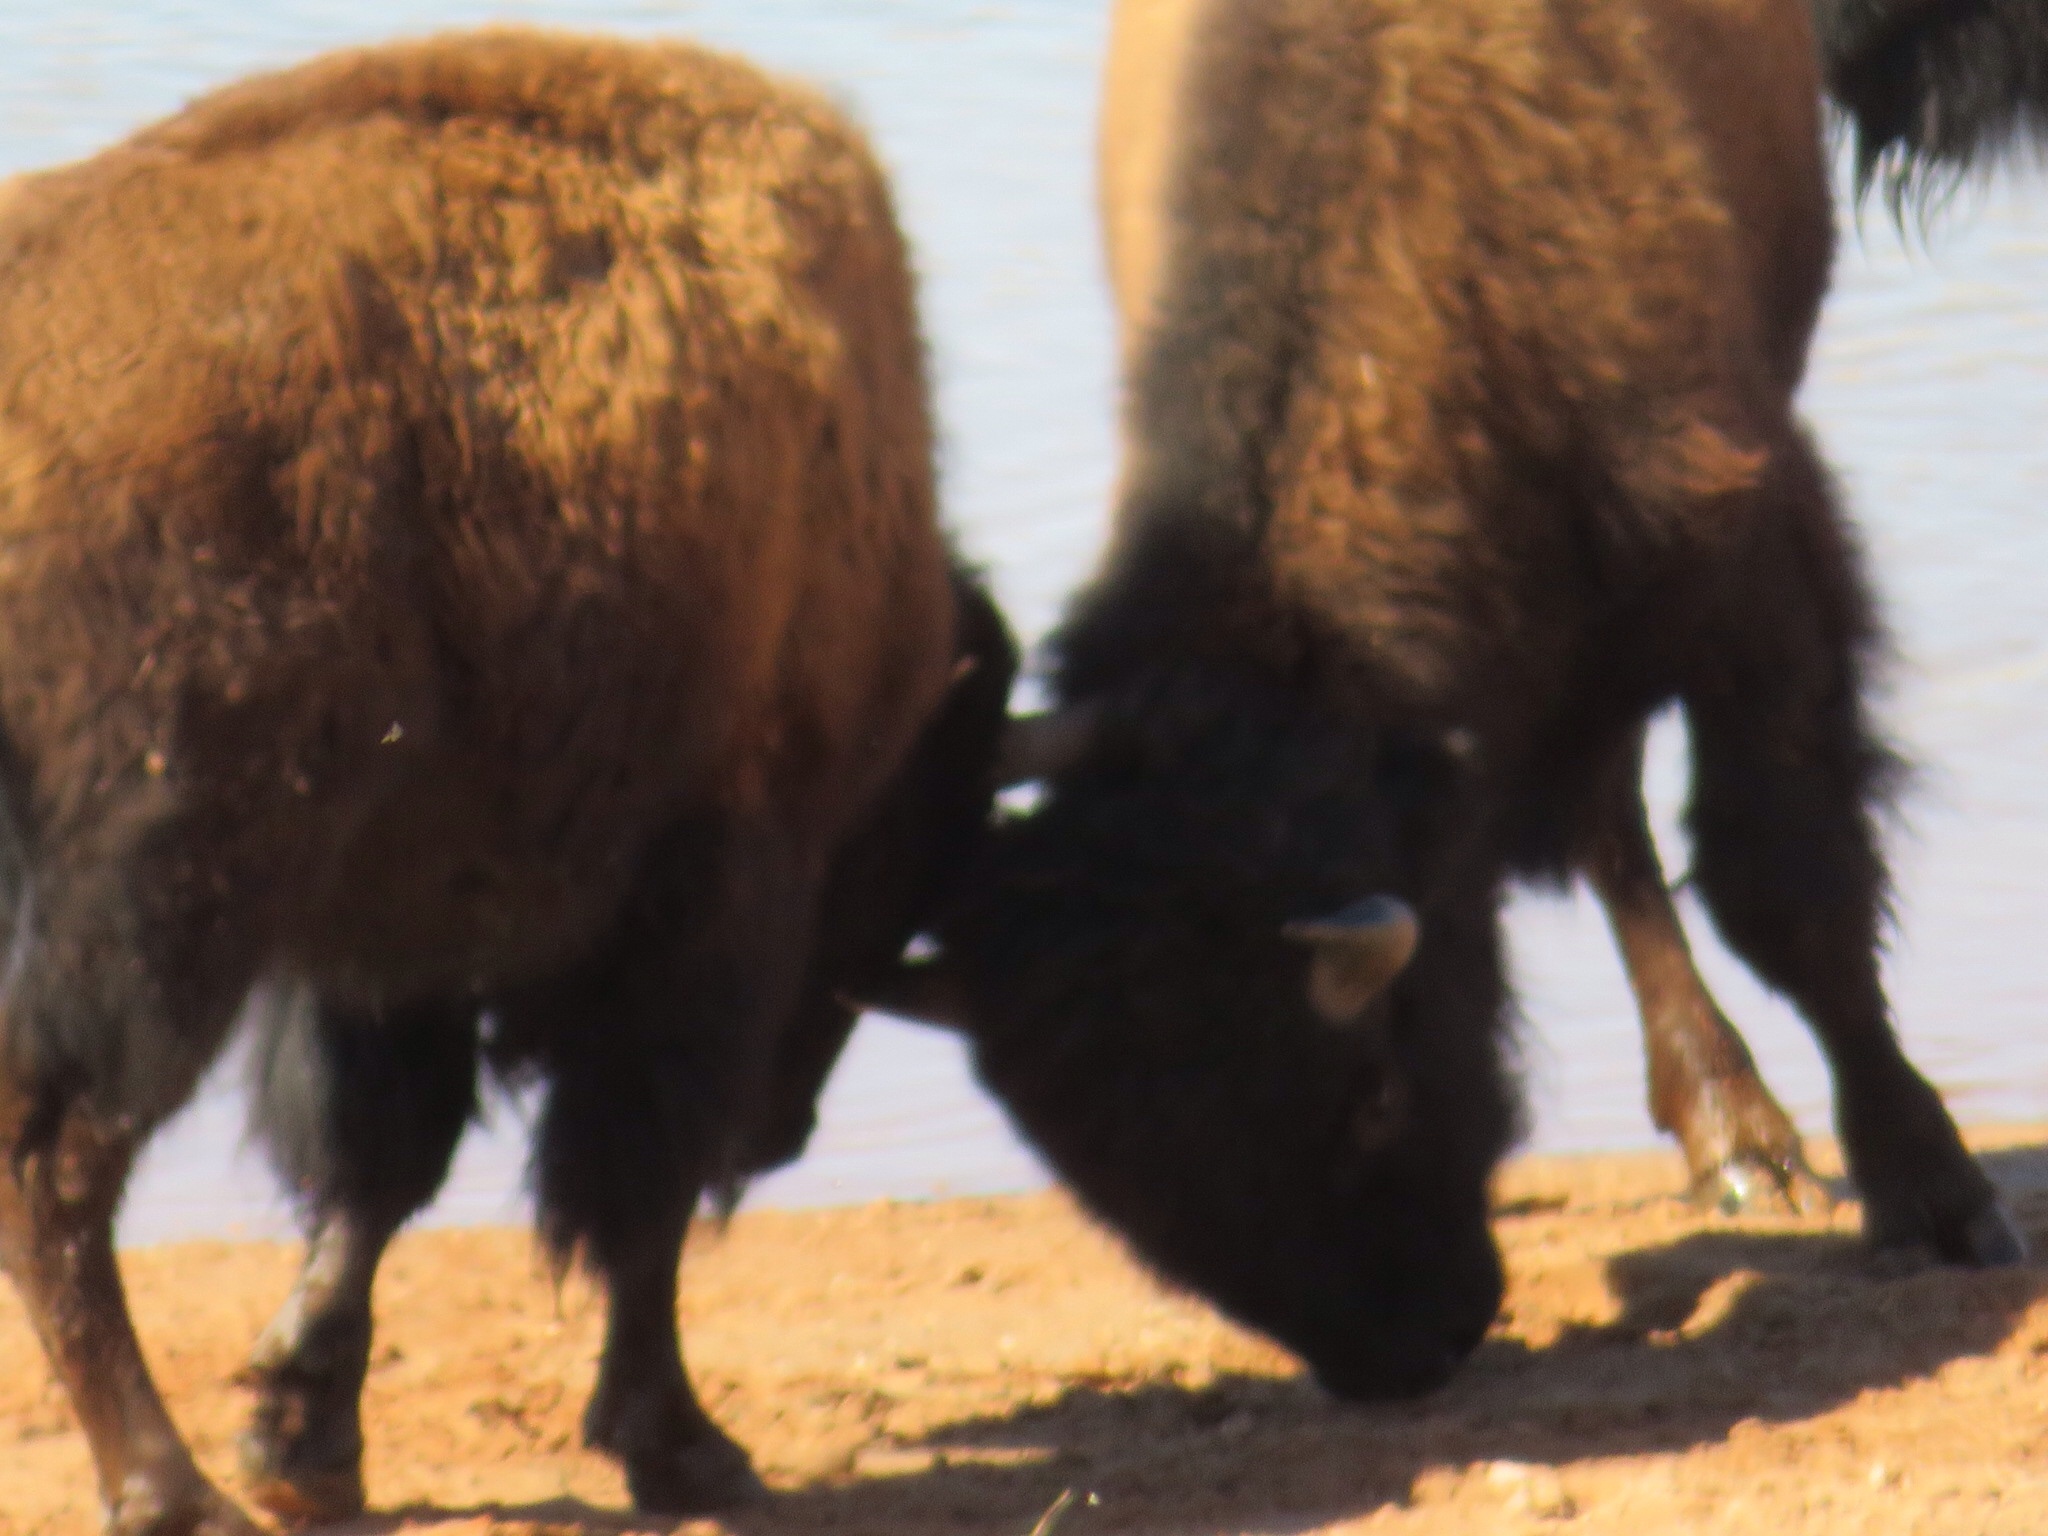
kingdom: Animalia
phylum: Chordata
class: Mammalia
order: Artiodactyla
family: Bovidae
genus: Bison
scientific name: Bison bison
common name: American bison
